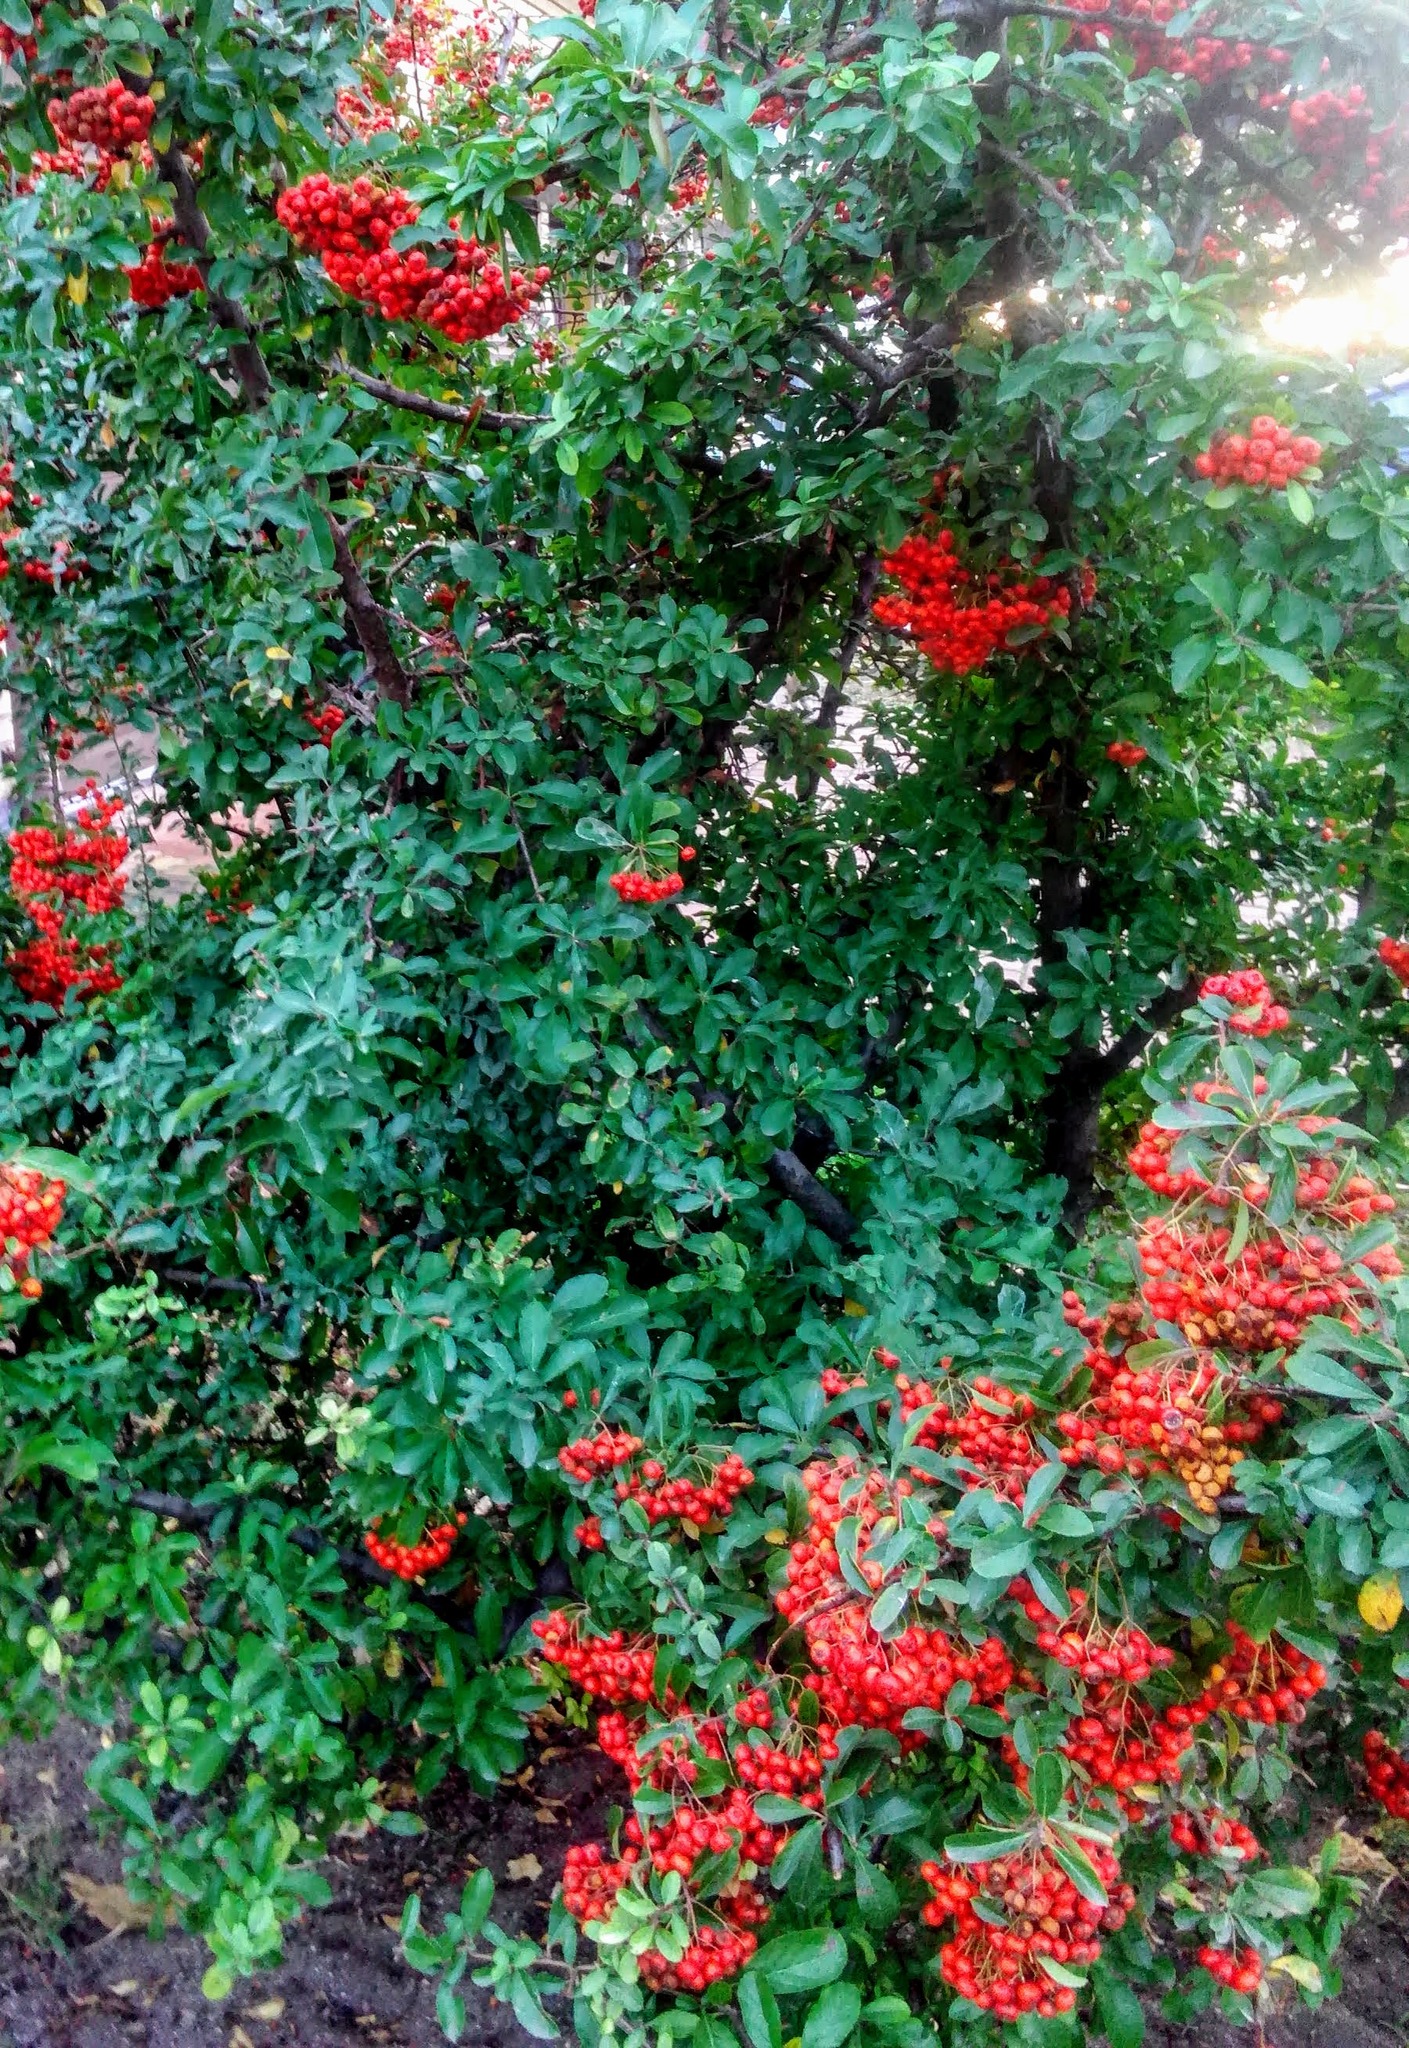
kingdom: Plantae
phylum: Tracheophyta
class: Magnoliopsida
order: Rosales
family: Rosaceae
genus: Pyracantha
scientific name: Pyracantha coccinea
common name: Firethorn
